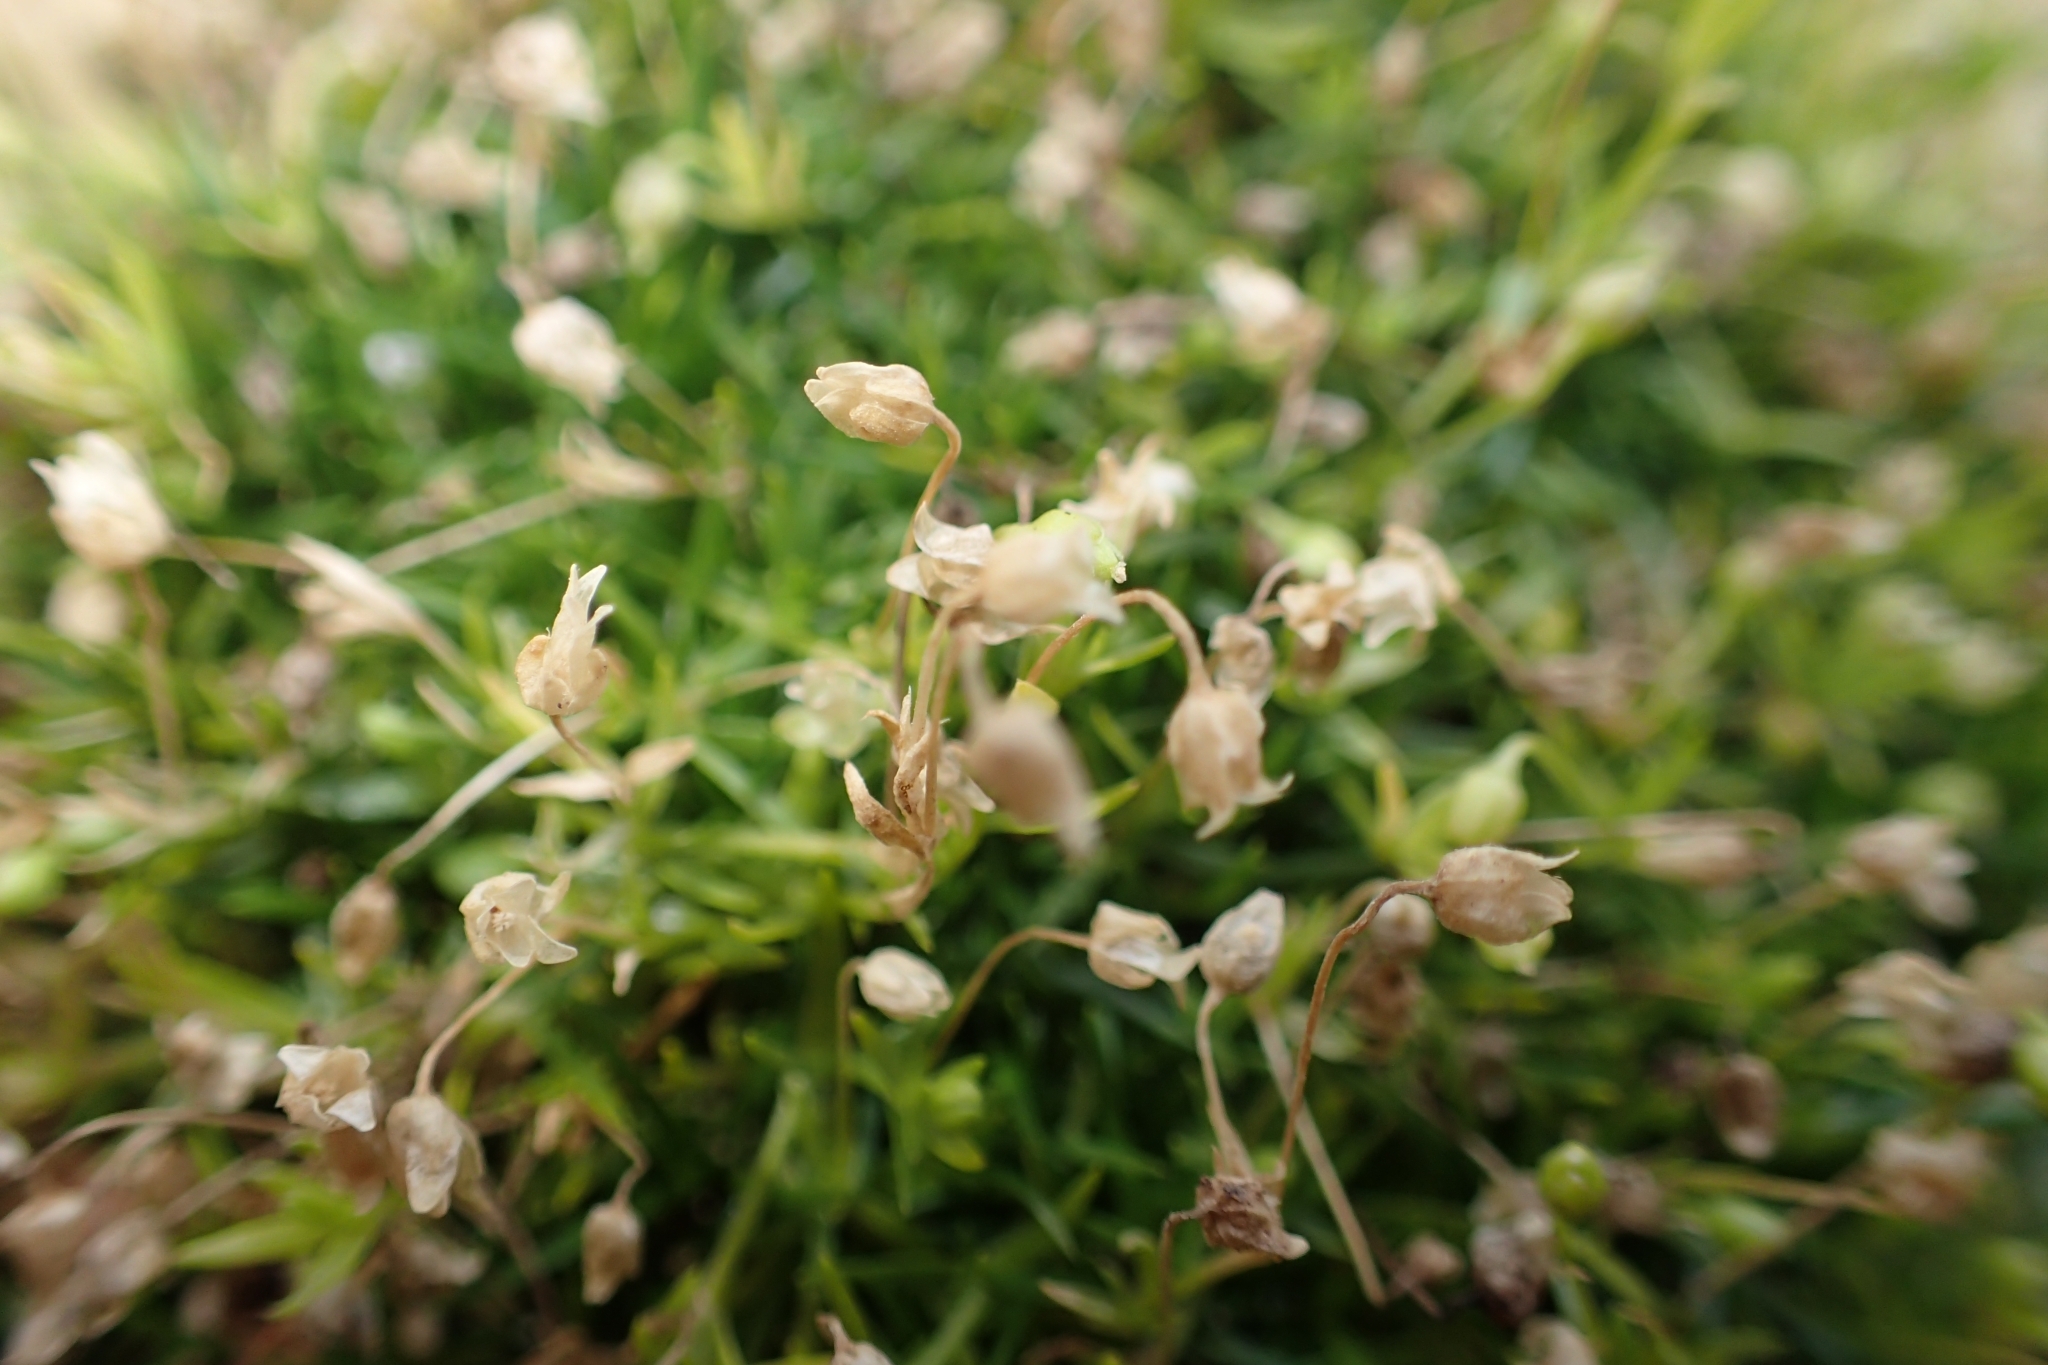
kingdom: Plantae
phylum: Tracheophyta
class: Magnoliopsida
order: Caryophyllales
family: Caryophyllaceae
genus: Sagina
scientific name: Sagina procumbens
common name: Procumbent pearlwort
